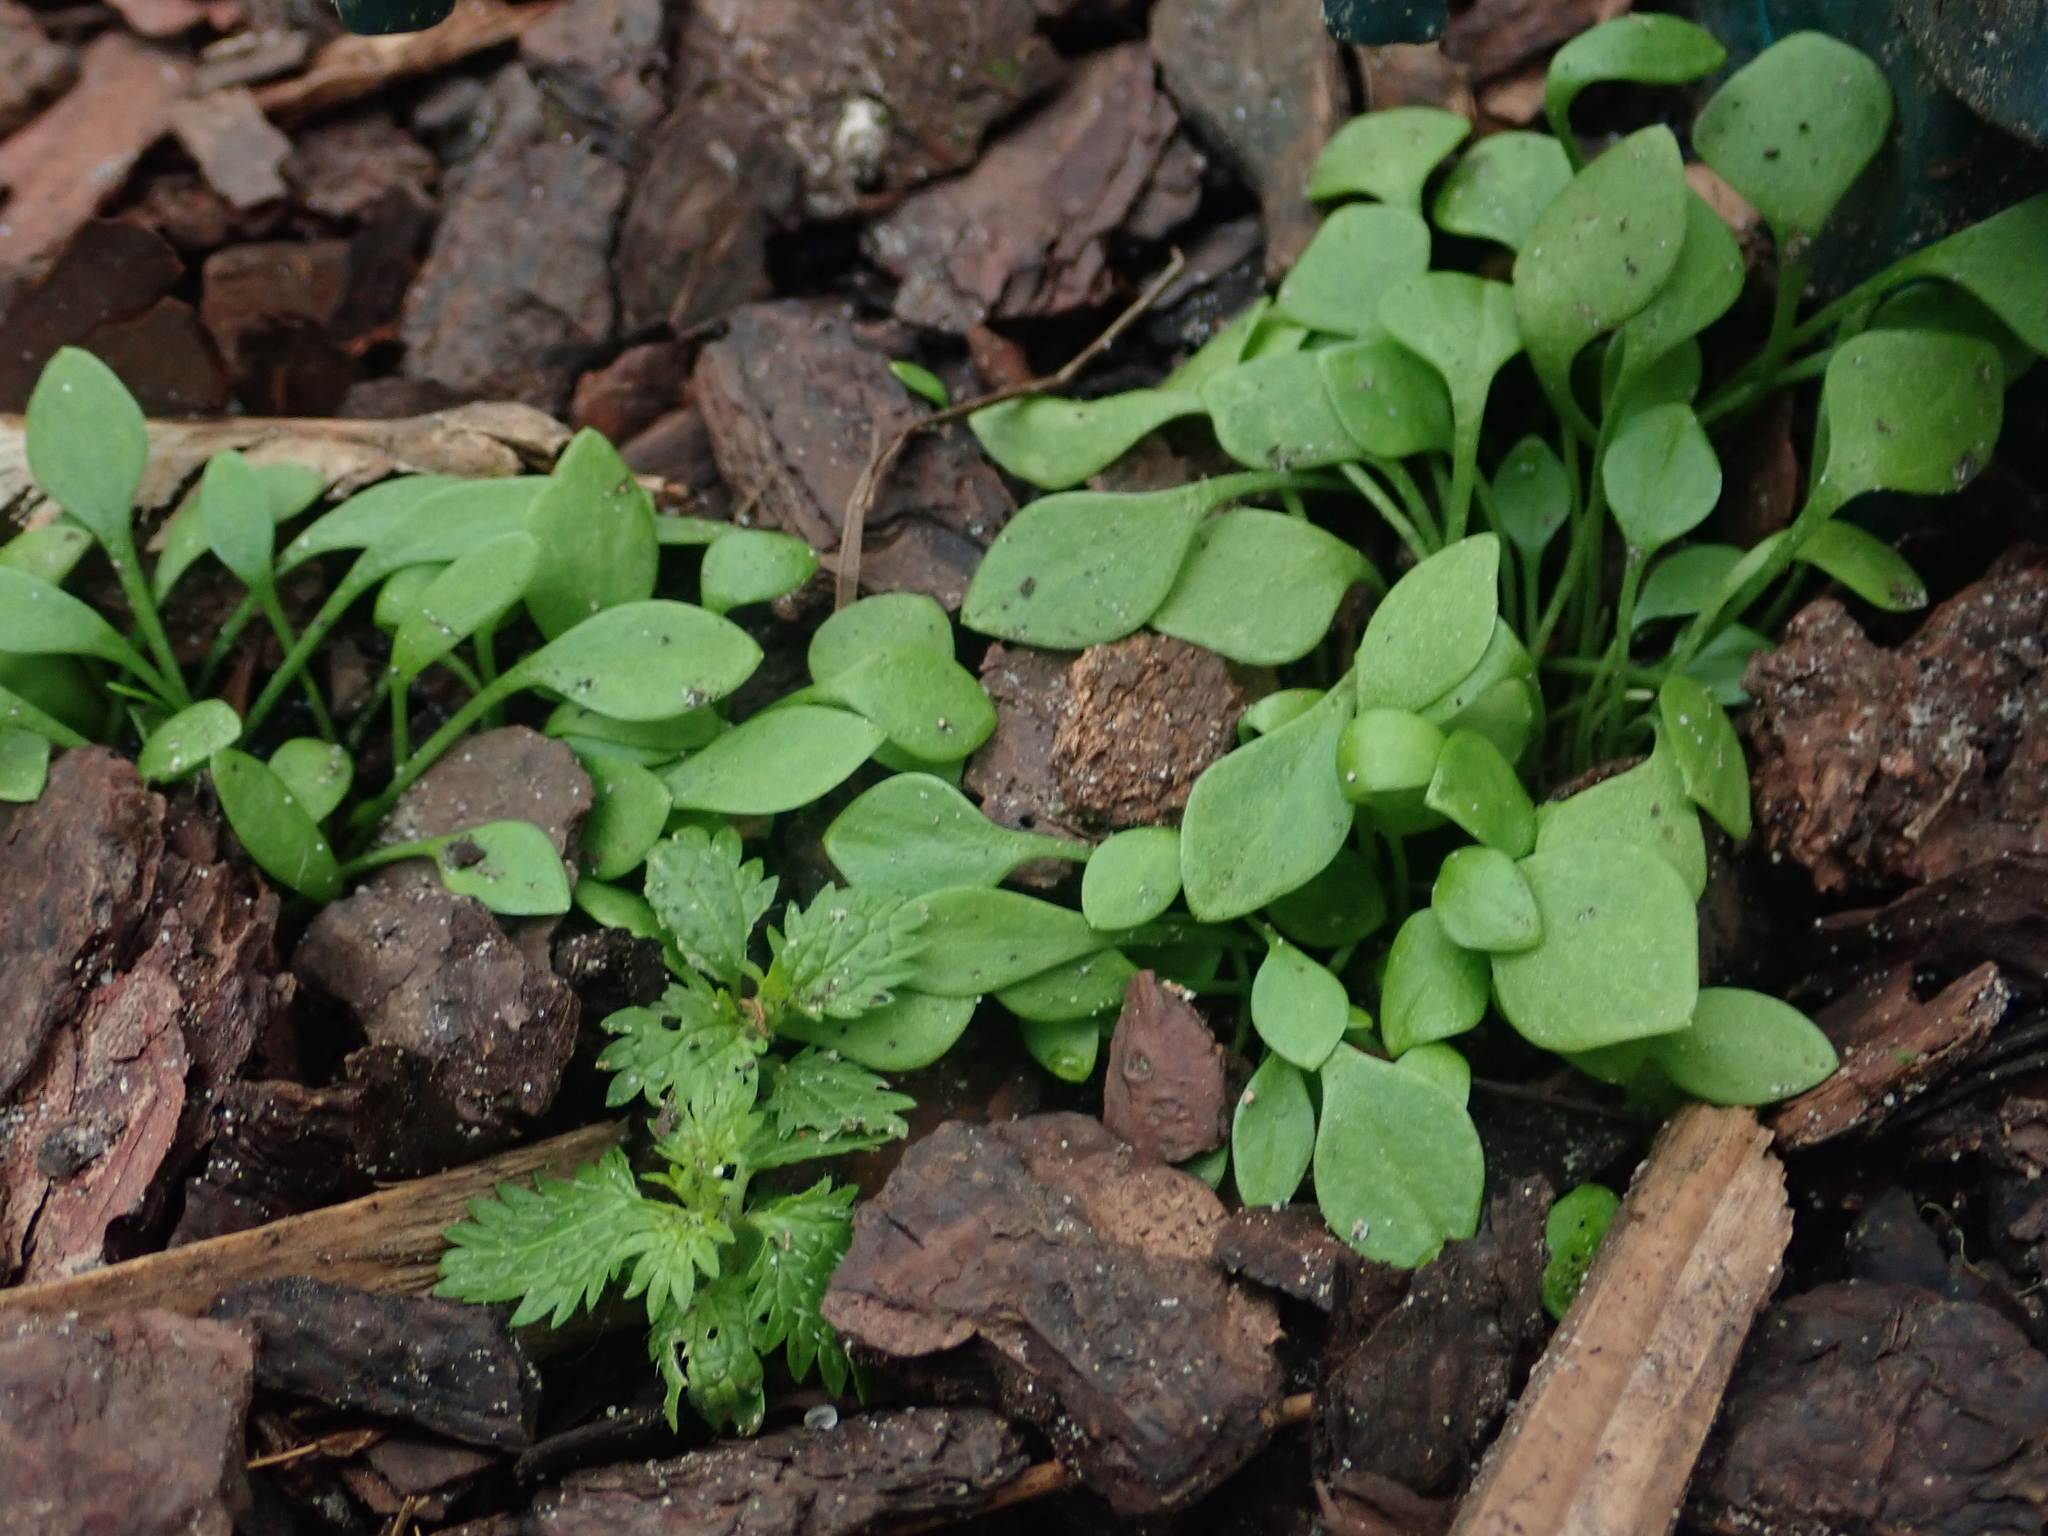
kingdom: Plantae
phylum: Tracheophyta
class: Magnoliopsida
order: Caryophyllales
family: Montiaceae
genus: Claytonia
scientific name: Claytonia perfoliata
